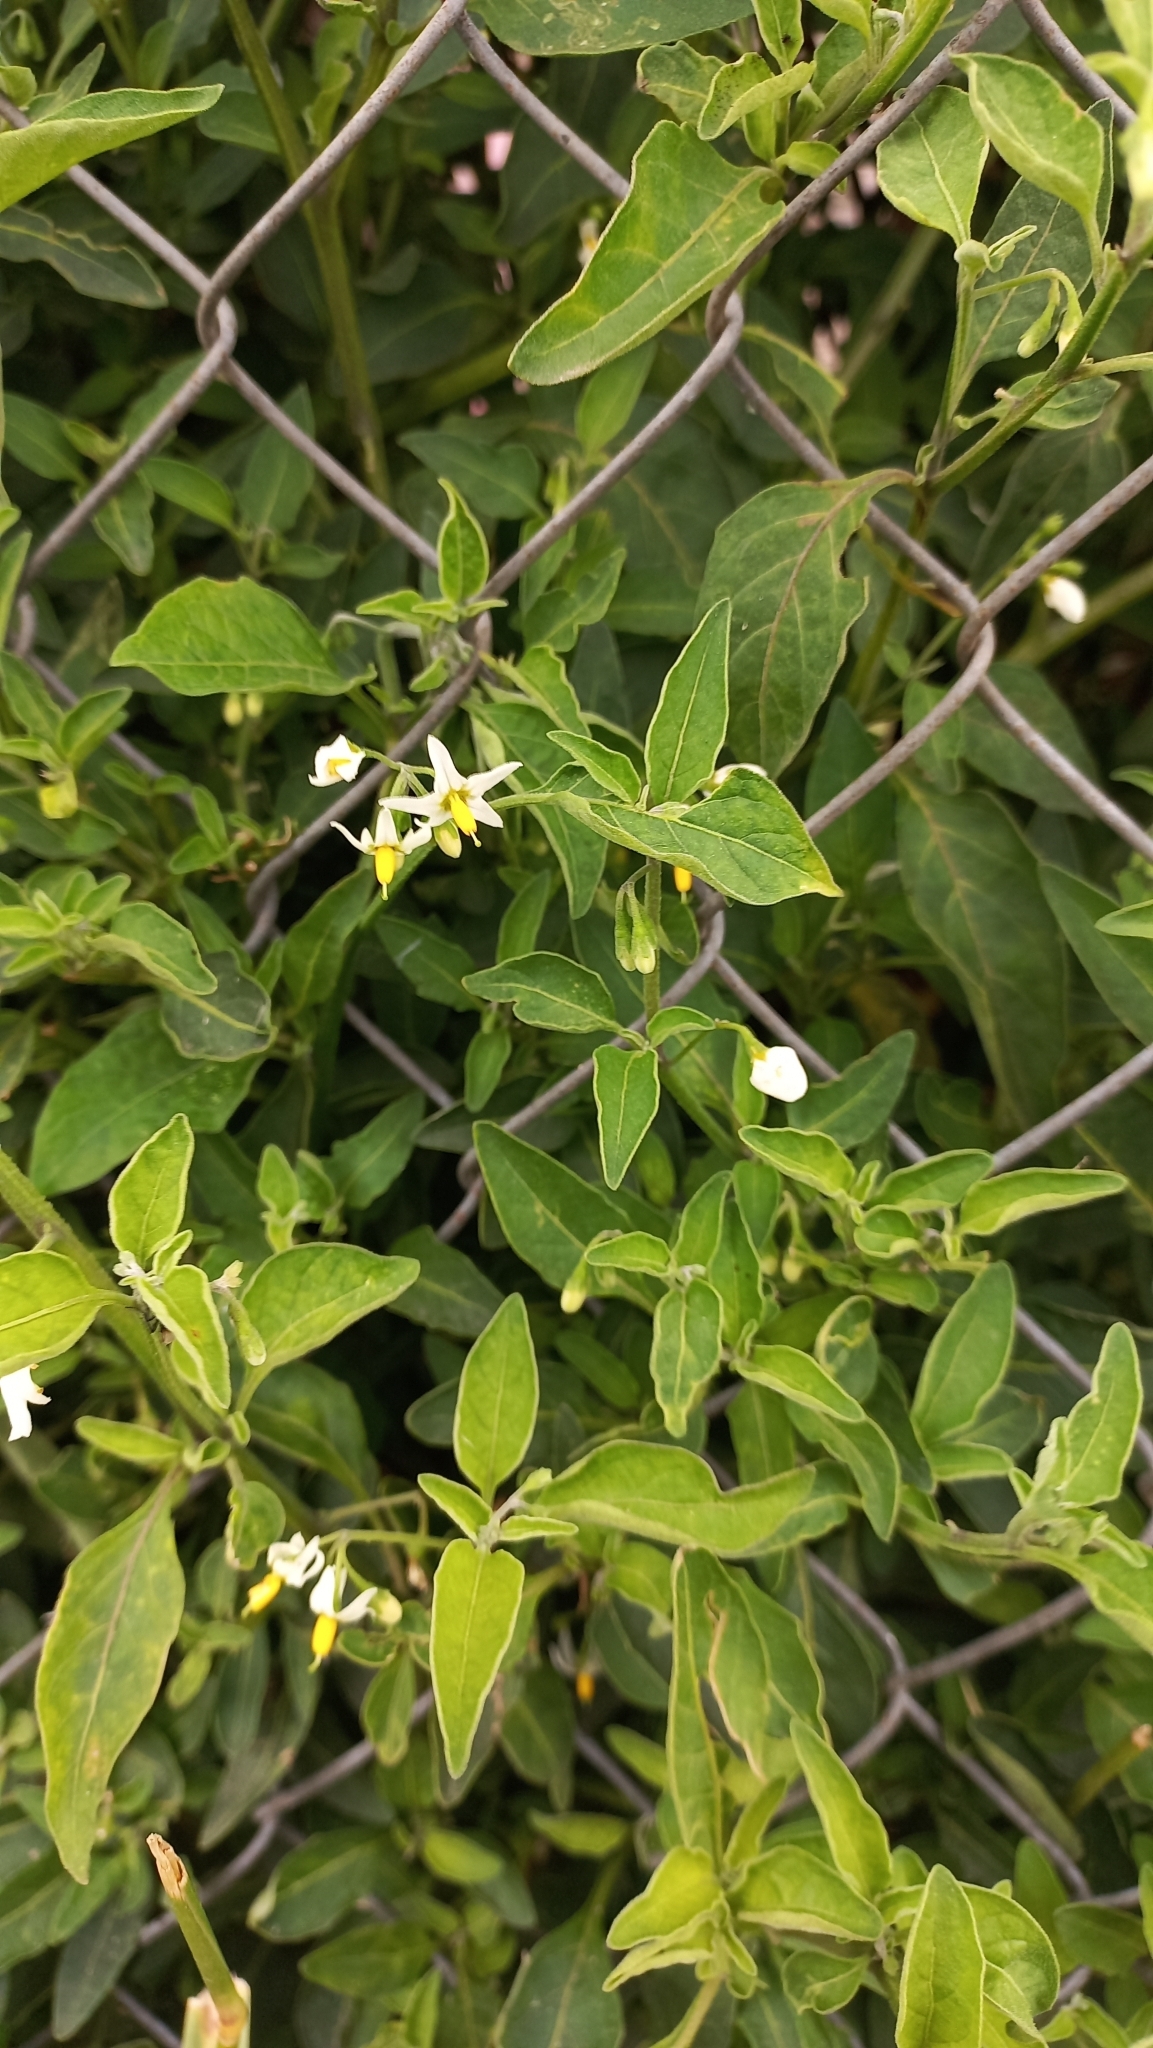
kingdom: Plantae
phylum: Tracheophyta
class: Magnoliopsida
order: Solanales
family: Solanaceae
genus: Solanum
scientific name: Solanum chenopodioides
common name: Tall nightshade
